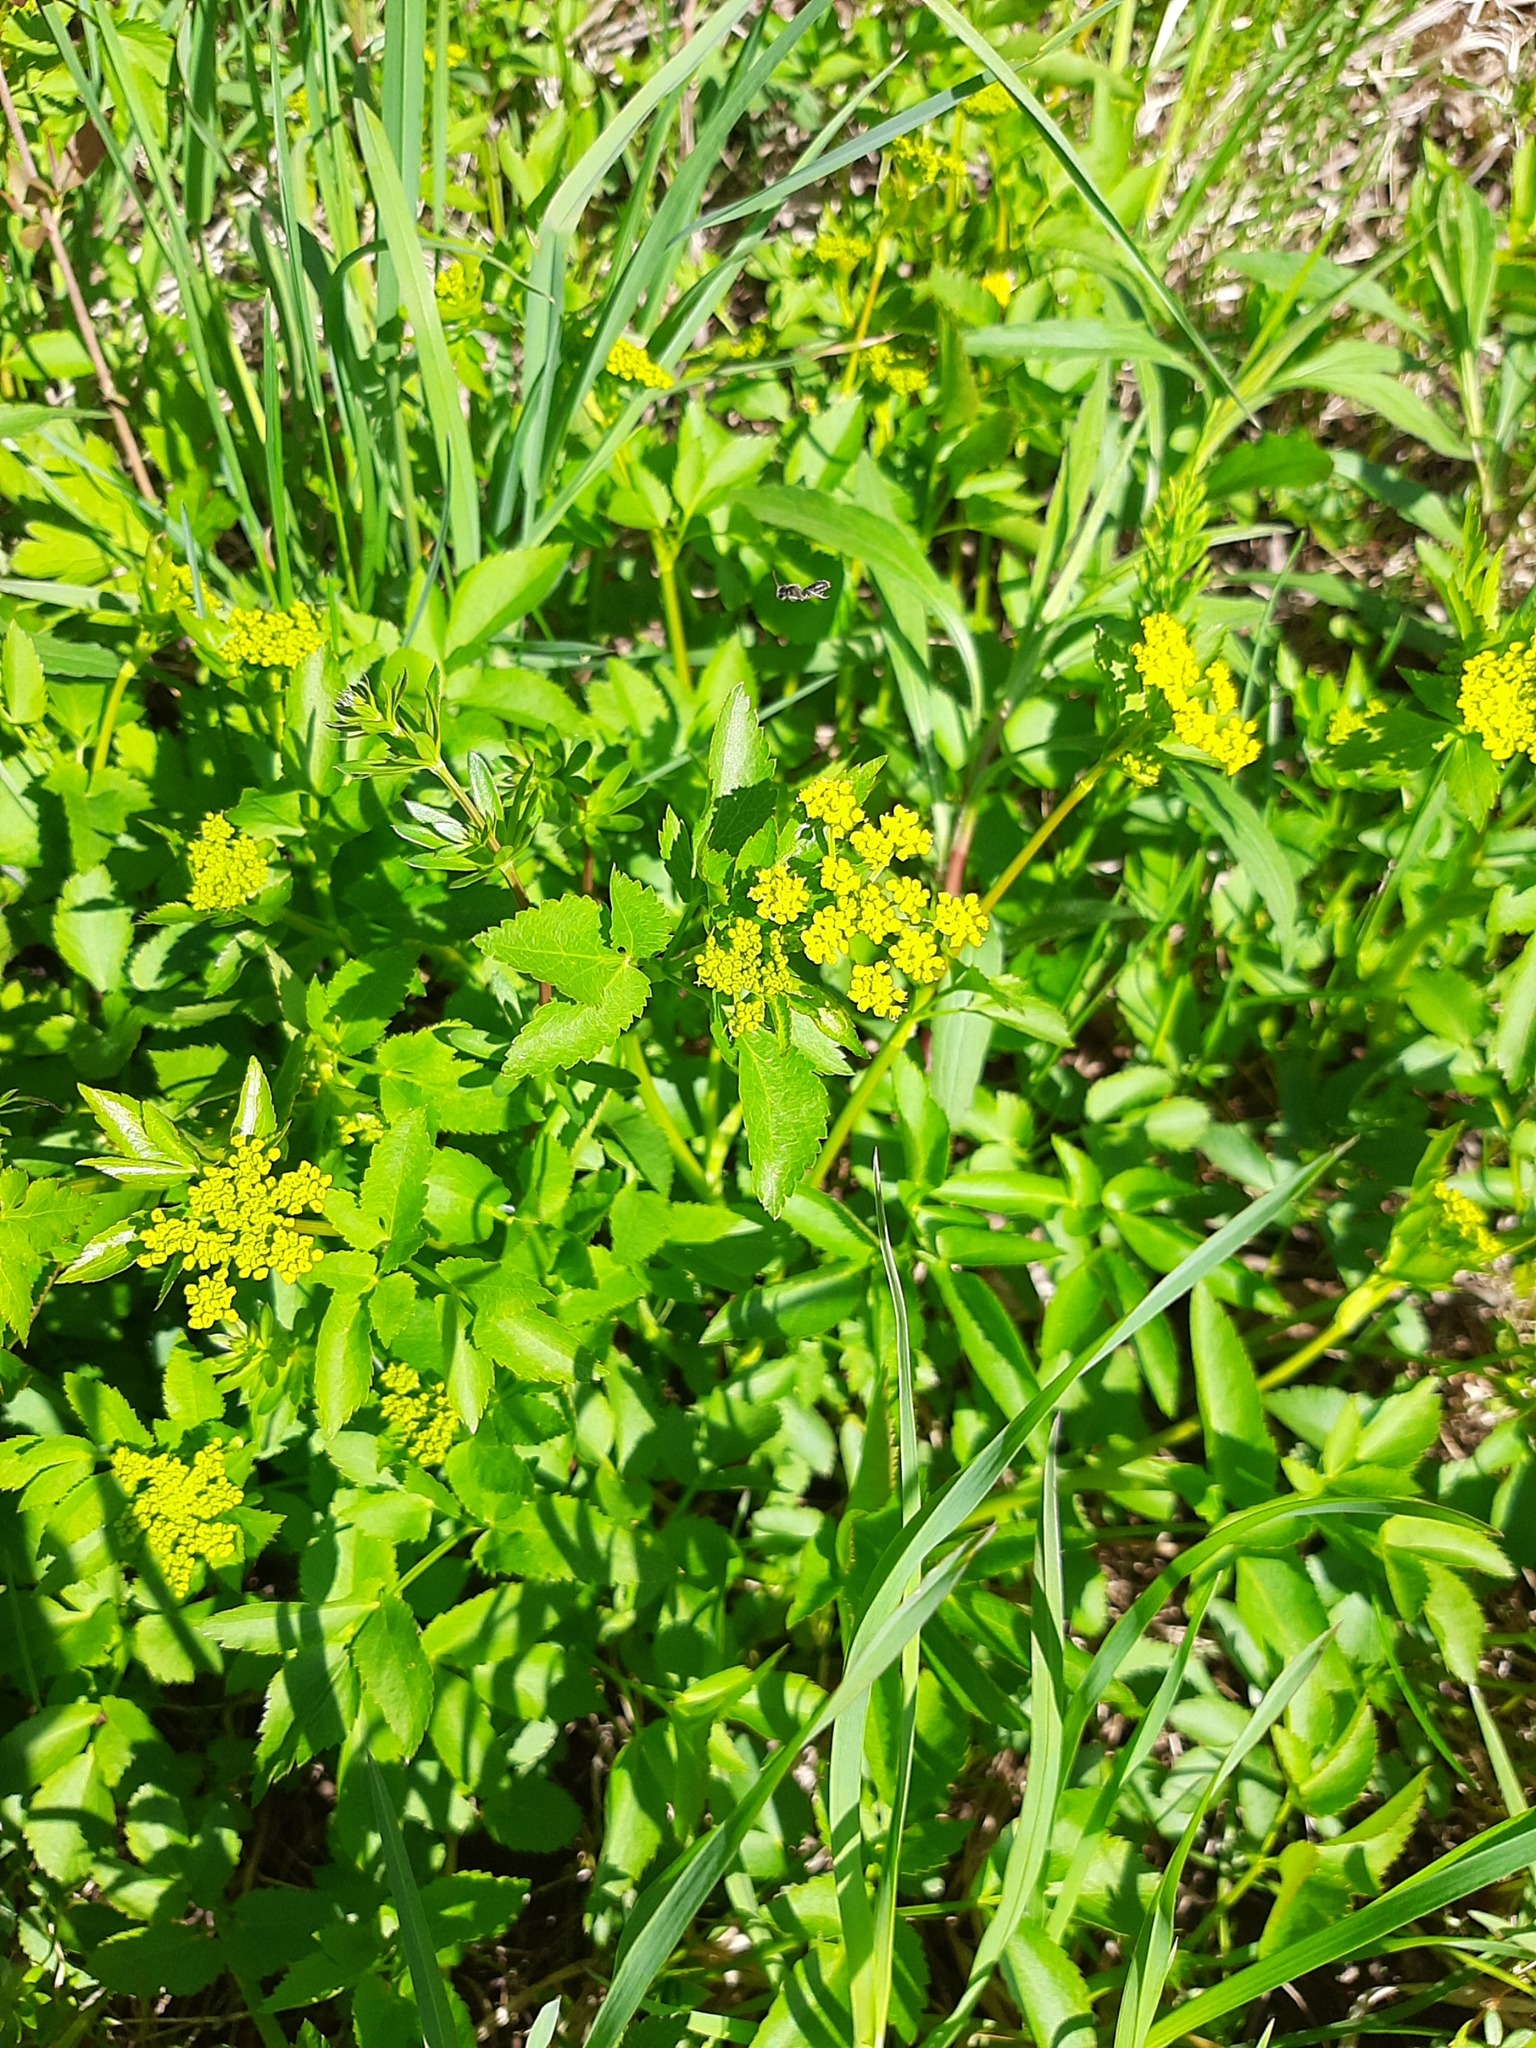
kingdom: Plantae
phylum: Tracheophyta
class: Magnoliopsida
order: Apiales
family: Apiaceae
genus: Zizia
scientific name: Zizia aurea
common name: Golden alexanders
